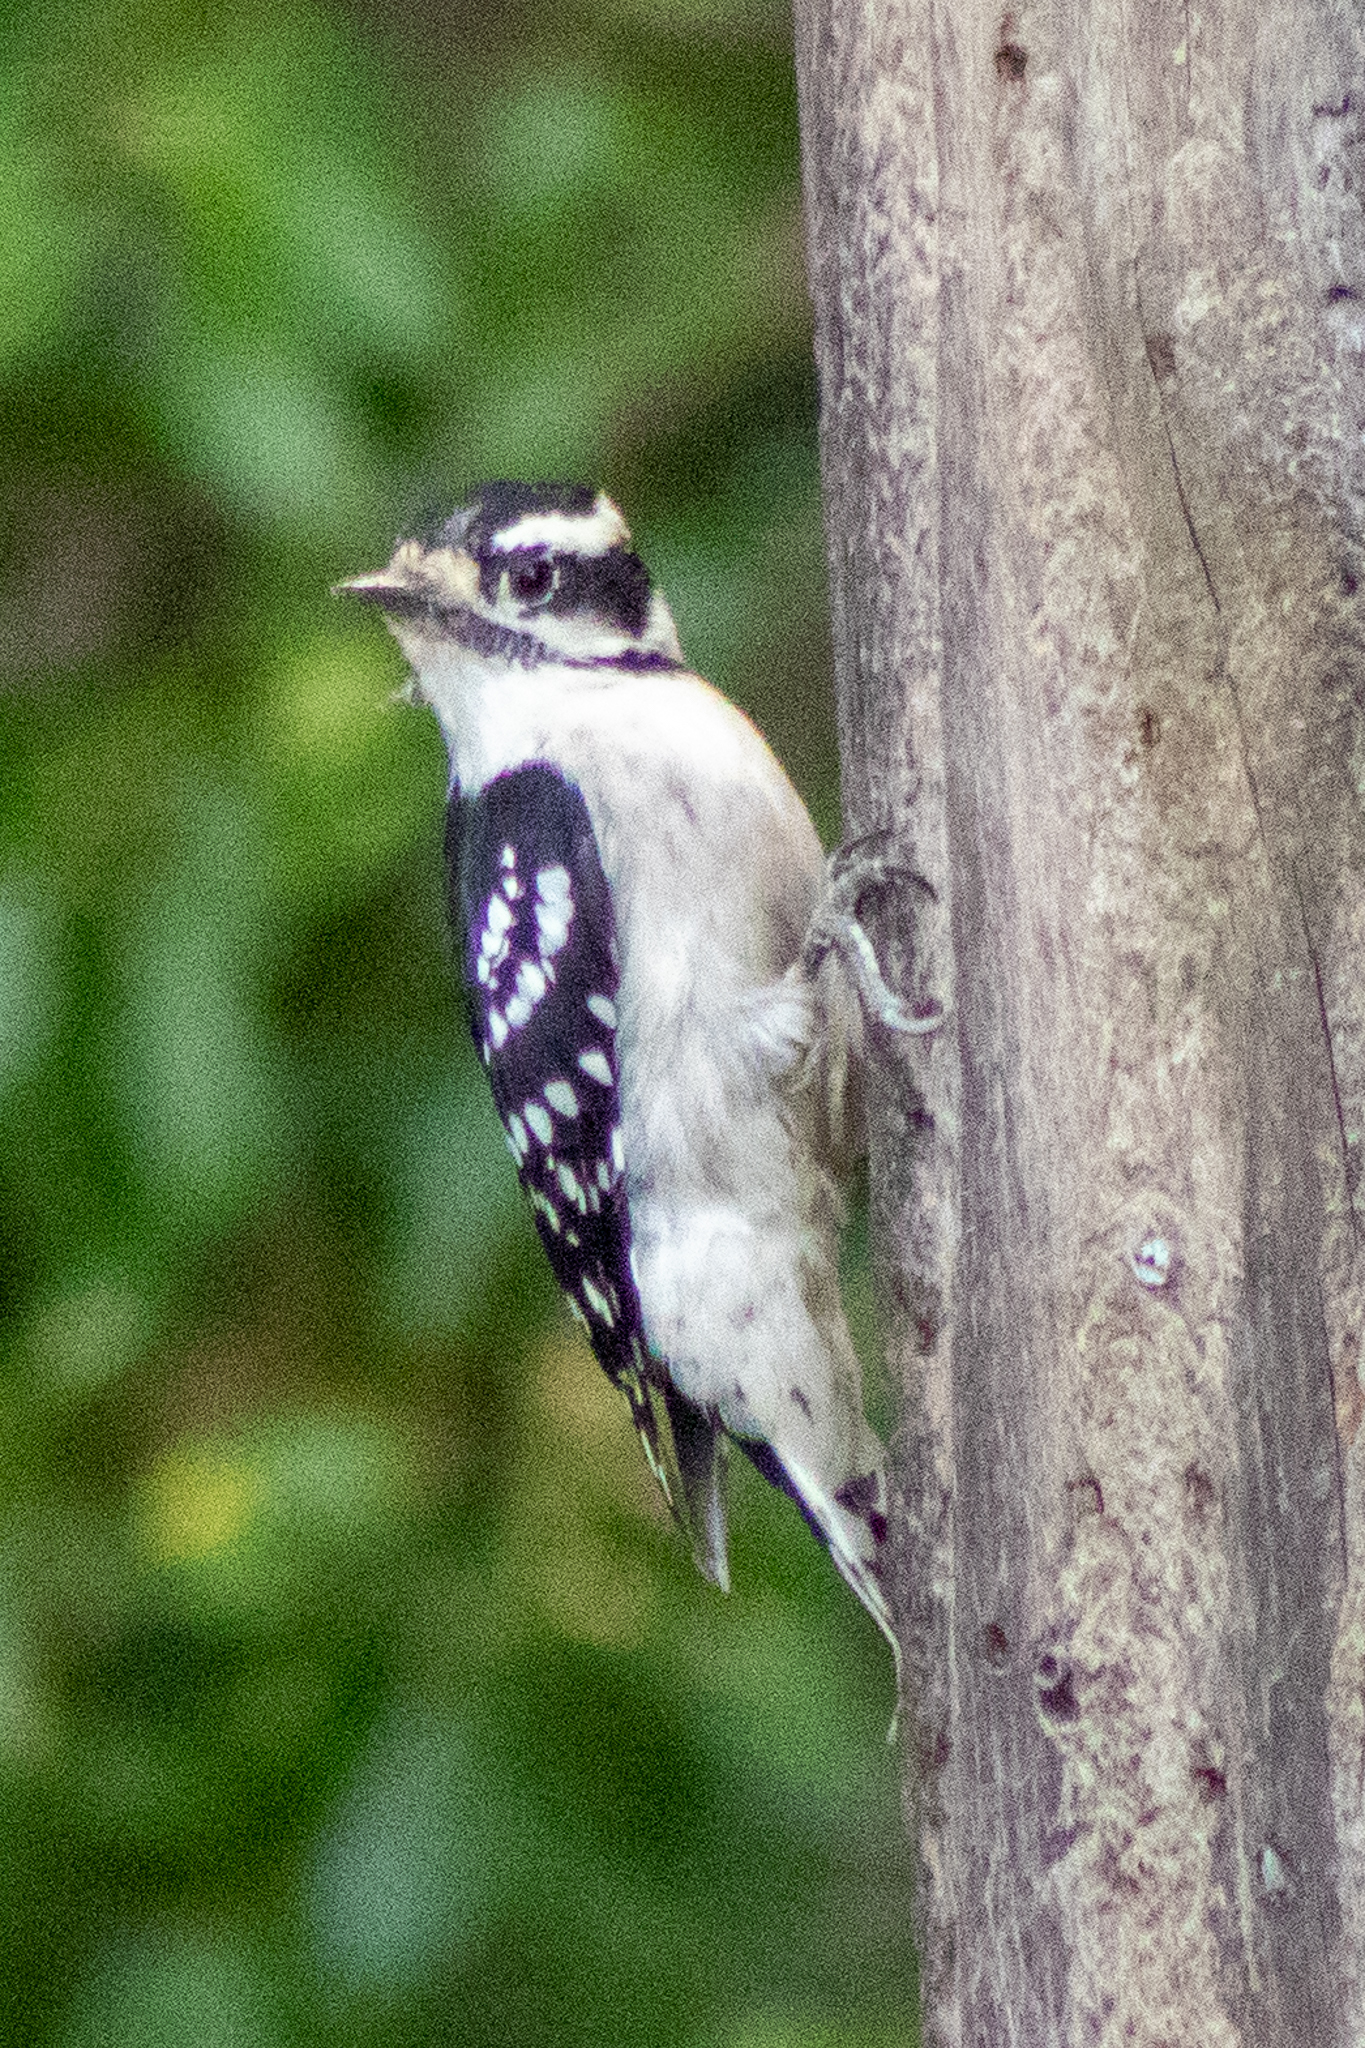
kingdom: Animalia
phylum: Chordata
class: Aves
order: Piciformes
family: Picidae
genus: Dryobates
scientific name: Dryobates pubescens
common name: Downy woodpecker
